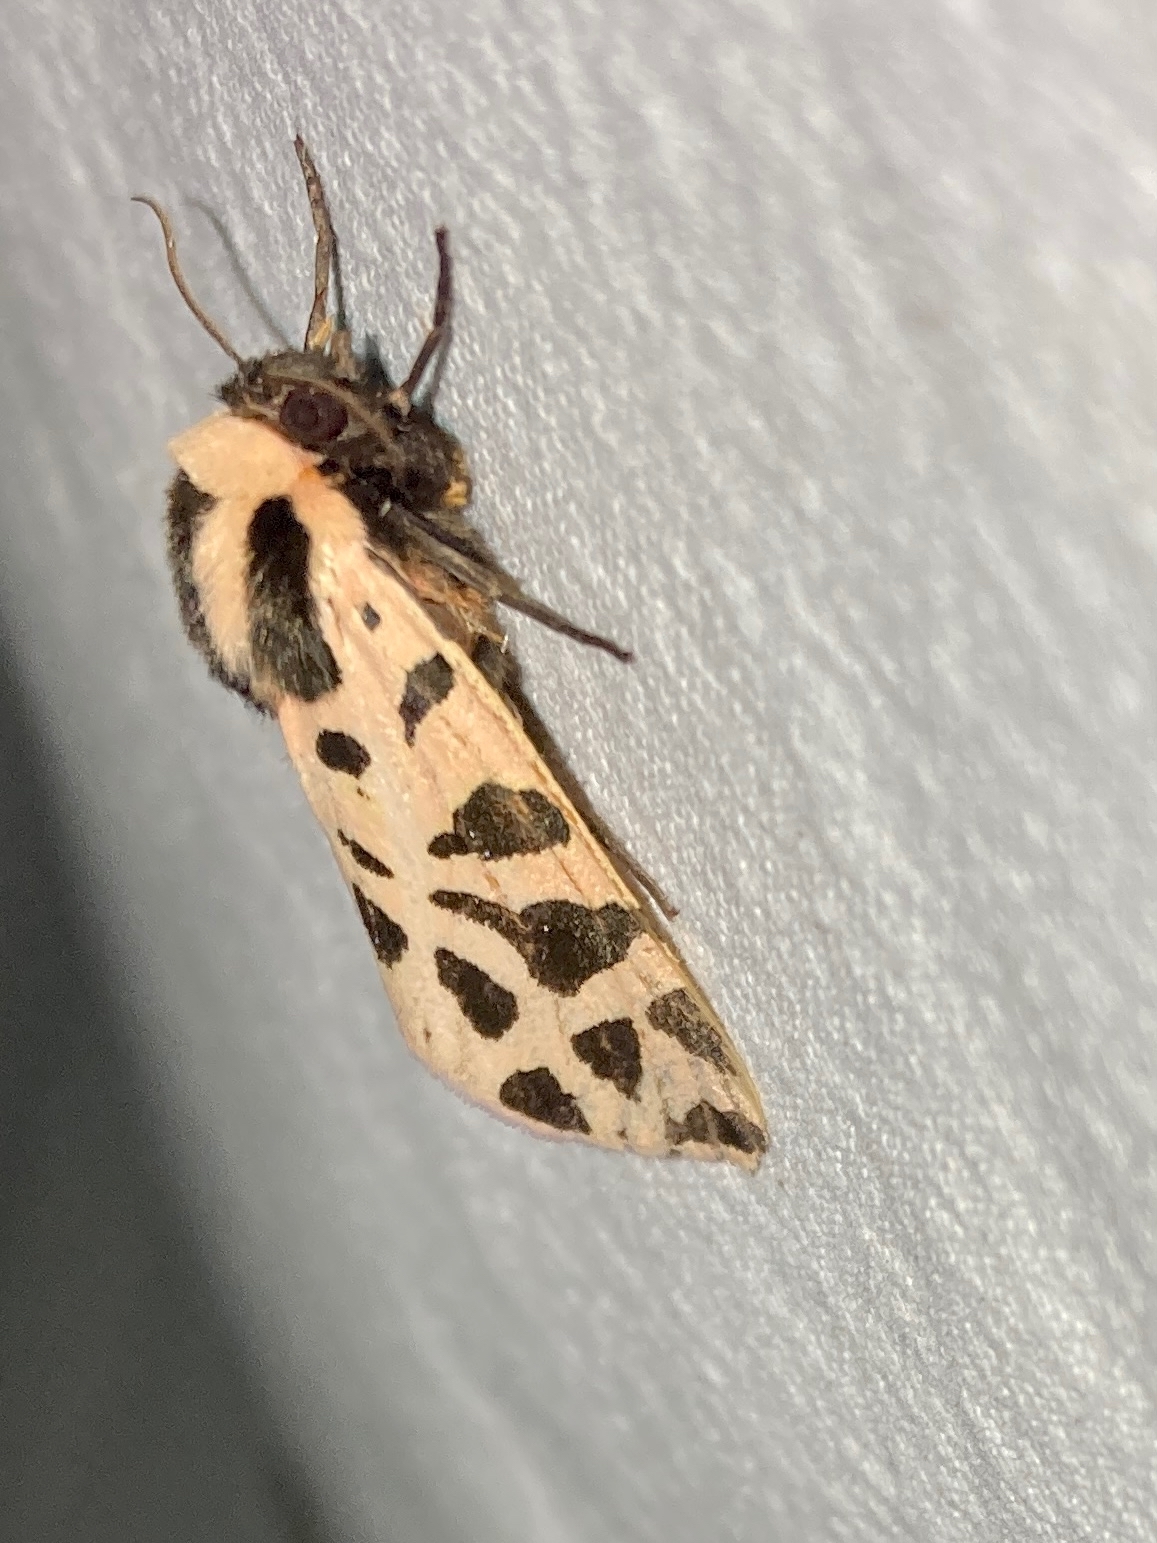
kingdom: Animalia
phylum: Arthropoda
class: Insecta
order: Lepidoptera
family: Erebidae
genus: Cymbalophora
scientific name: Cymbalophora pudica
